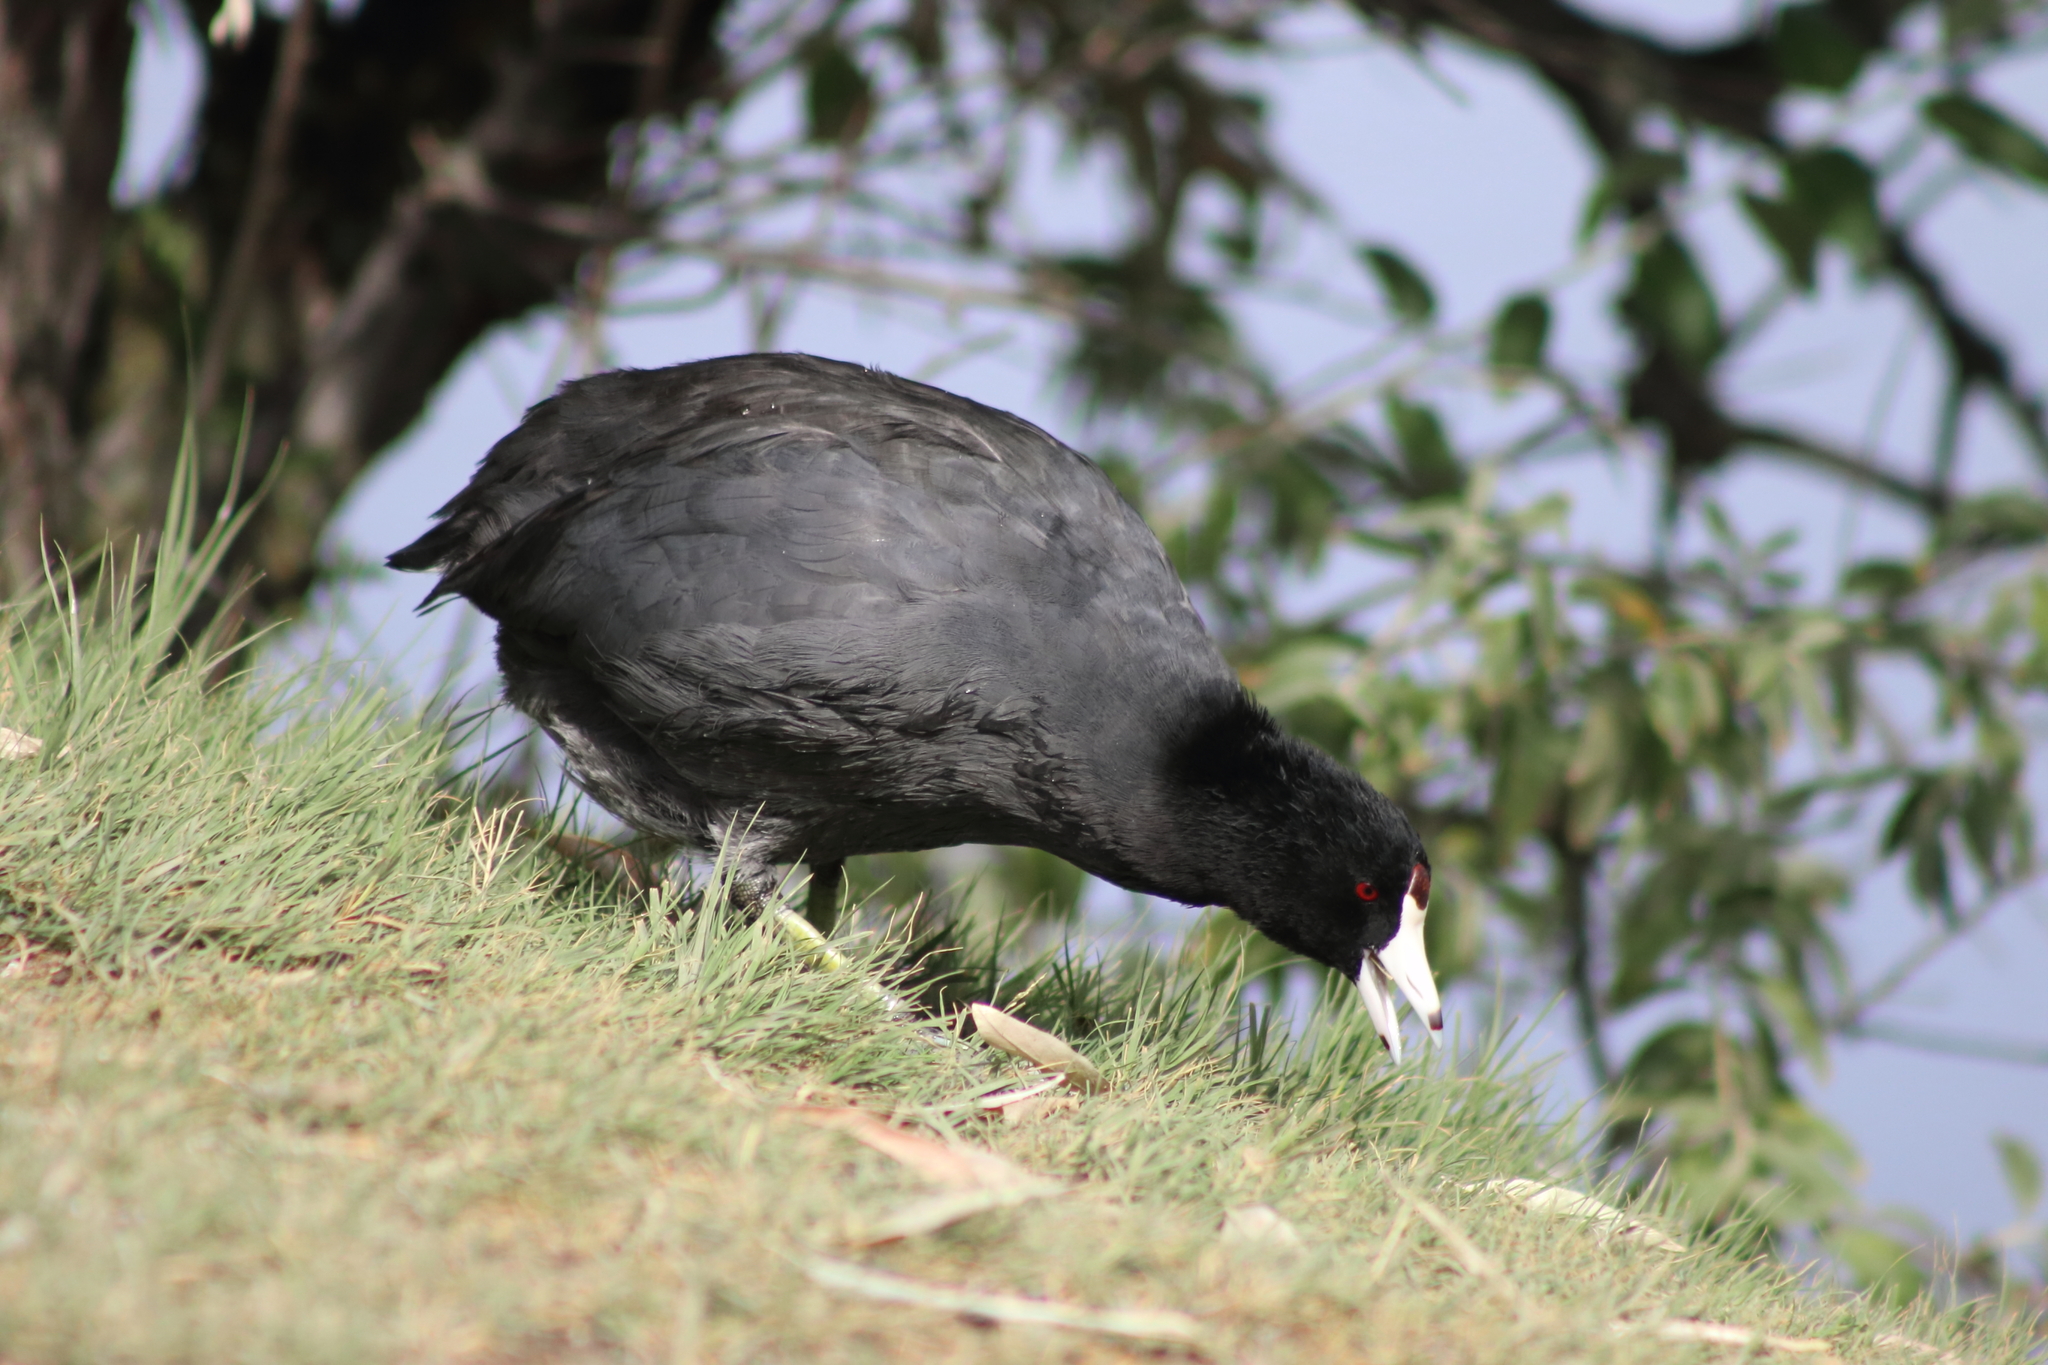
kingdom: Animalia
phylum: Chordata
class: Aves
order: Gruiformes
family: Rallidae
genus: Fulica
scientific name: Fulica americana
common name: American coot
